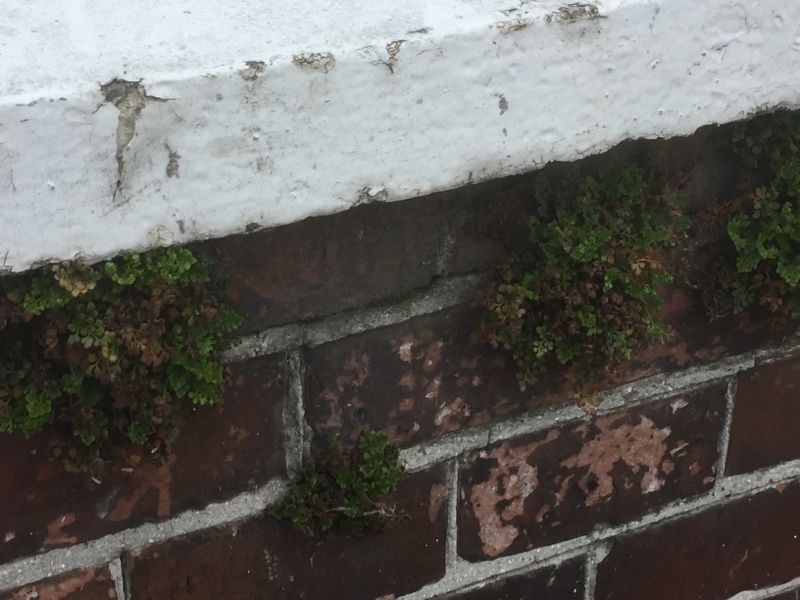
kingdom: Plantae
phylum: Tracheophyta
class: Polypodiopsida
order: Polypodiales
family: Aspleniaceae
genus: Asplenium
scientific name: Asplenium ruta-muraria
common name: Wall-rue
